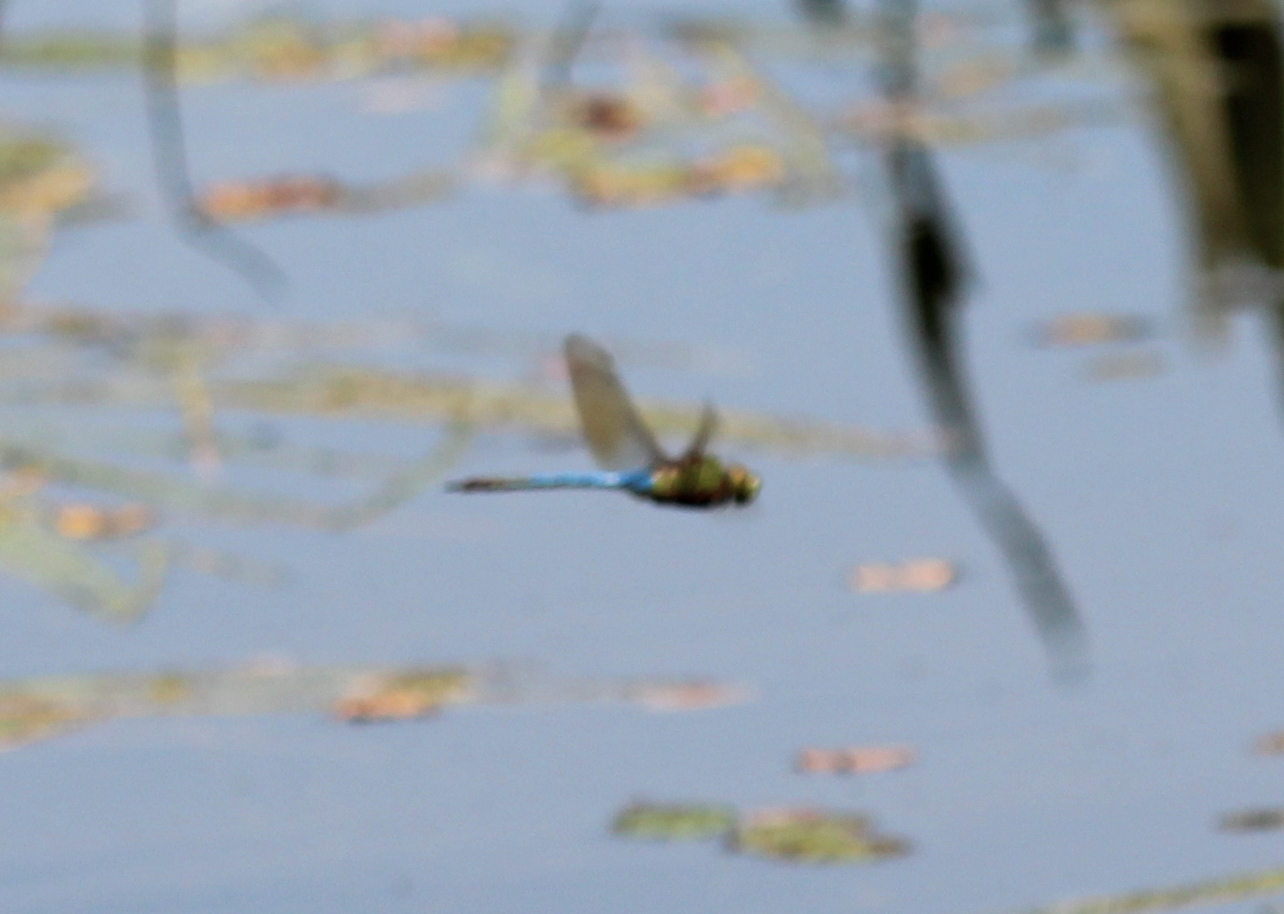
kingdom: Animalia
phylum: Arthropoda
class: Insecta
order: Odonata
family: Aeshnidae
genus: Anax
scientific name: Anax junius
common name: Common green darner
